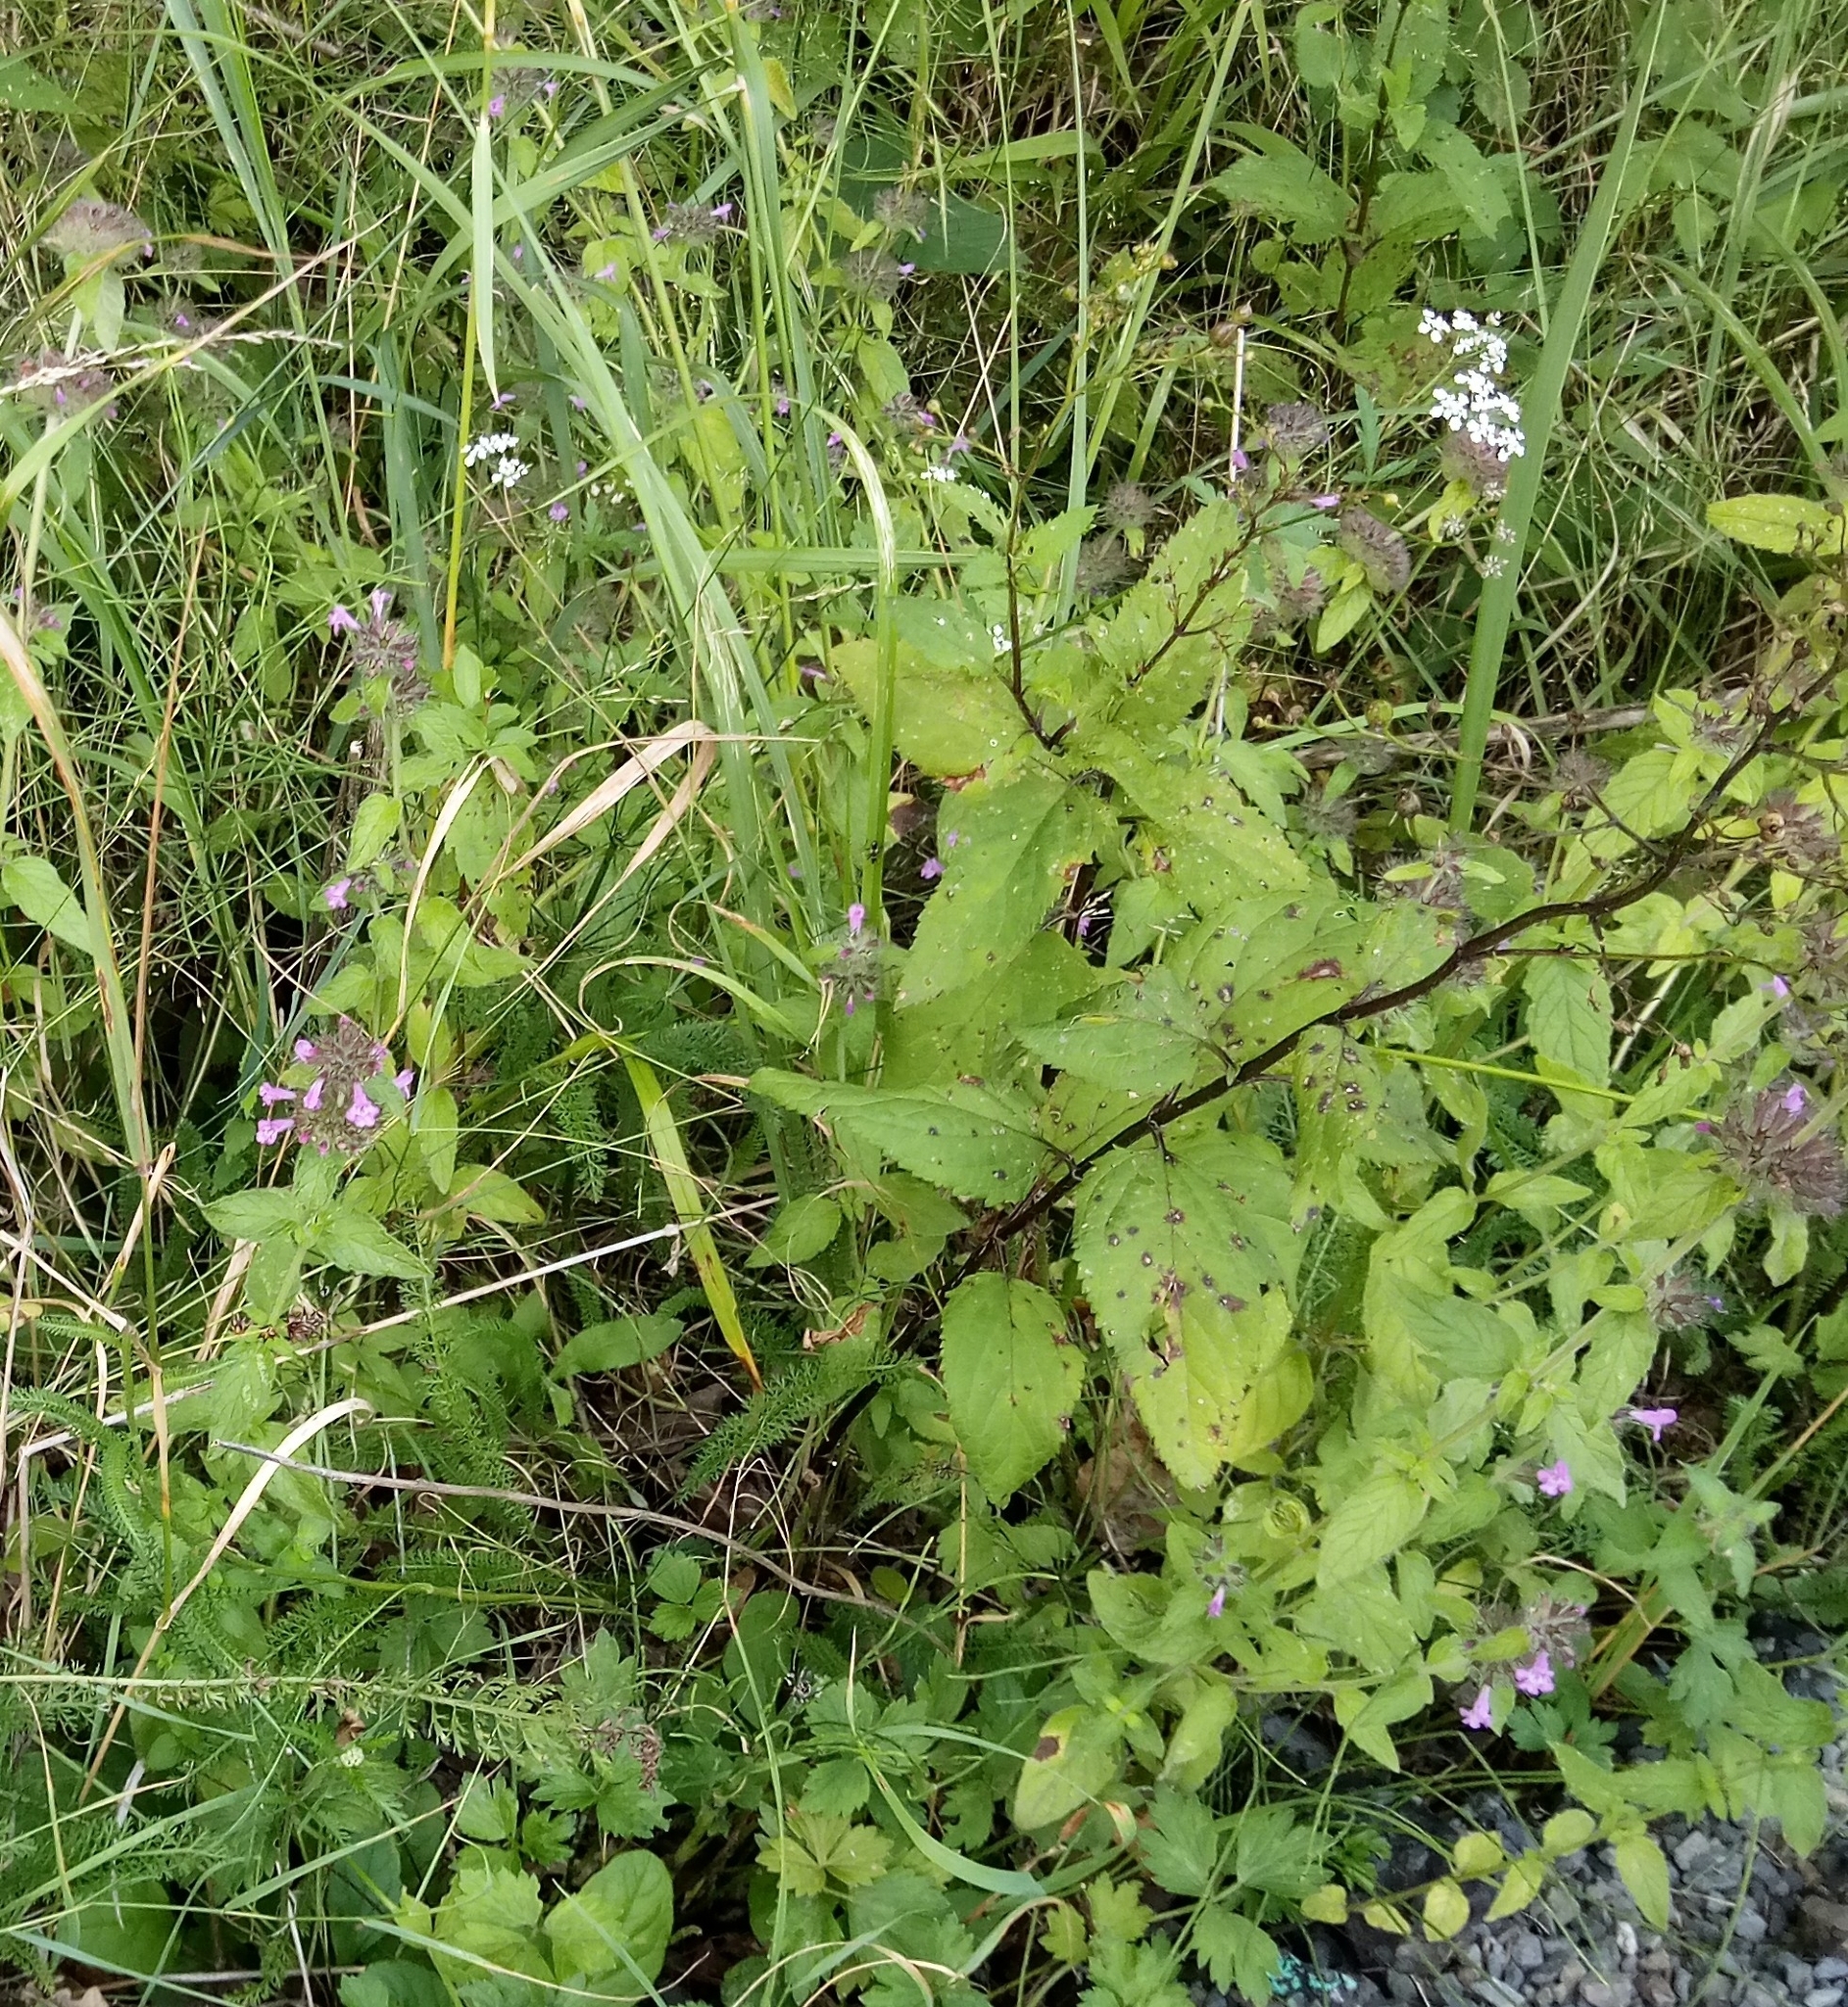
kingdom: Plantae
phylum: Tracheophyta
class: Magnoliopsida
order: Lamiales
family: Lamiaceae
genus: Clinopodium
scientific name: Clinopodium vulgare
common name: Wild basil
